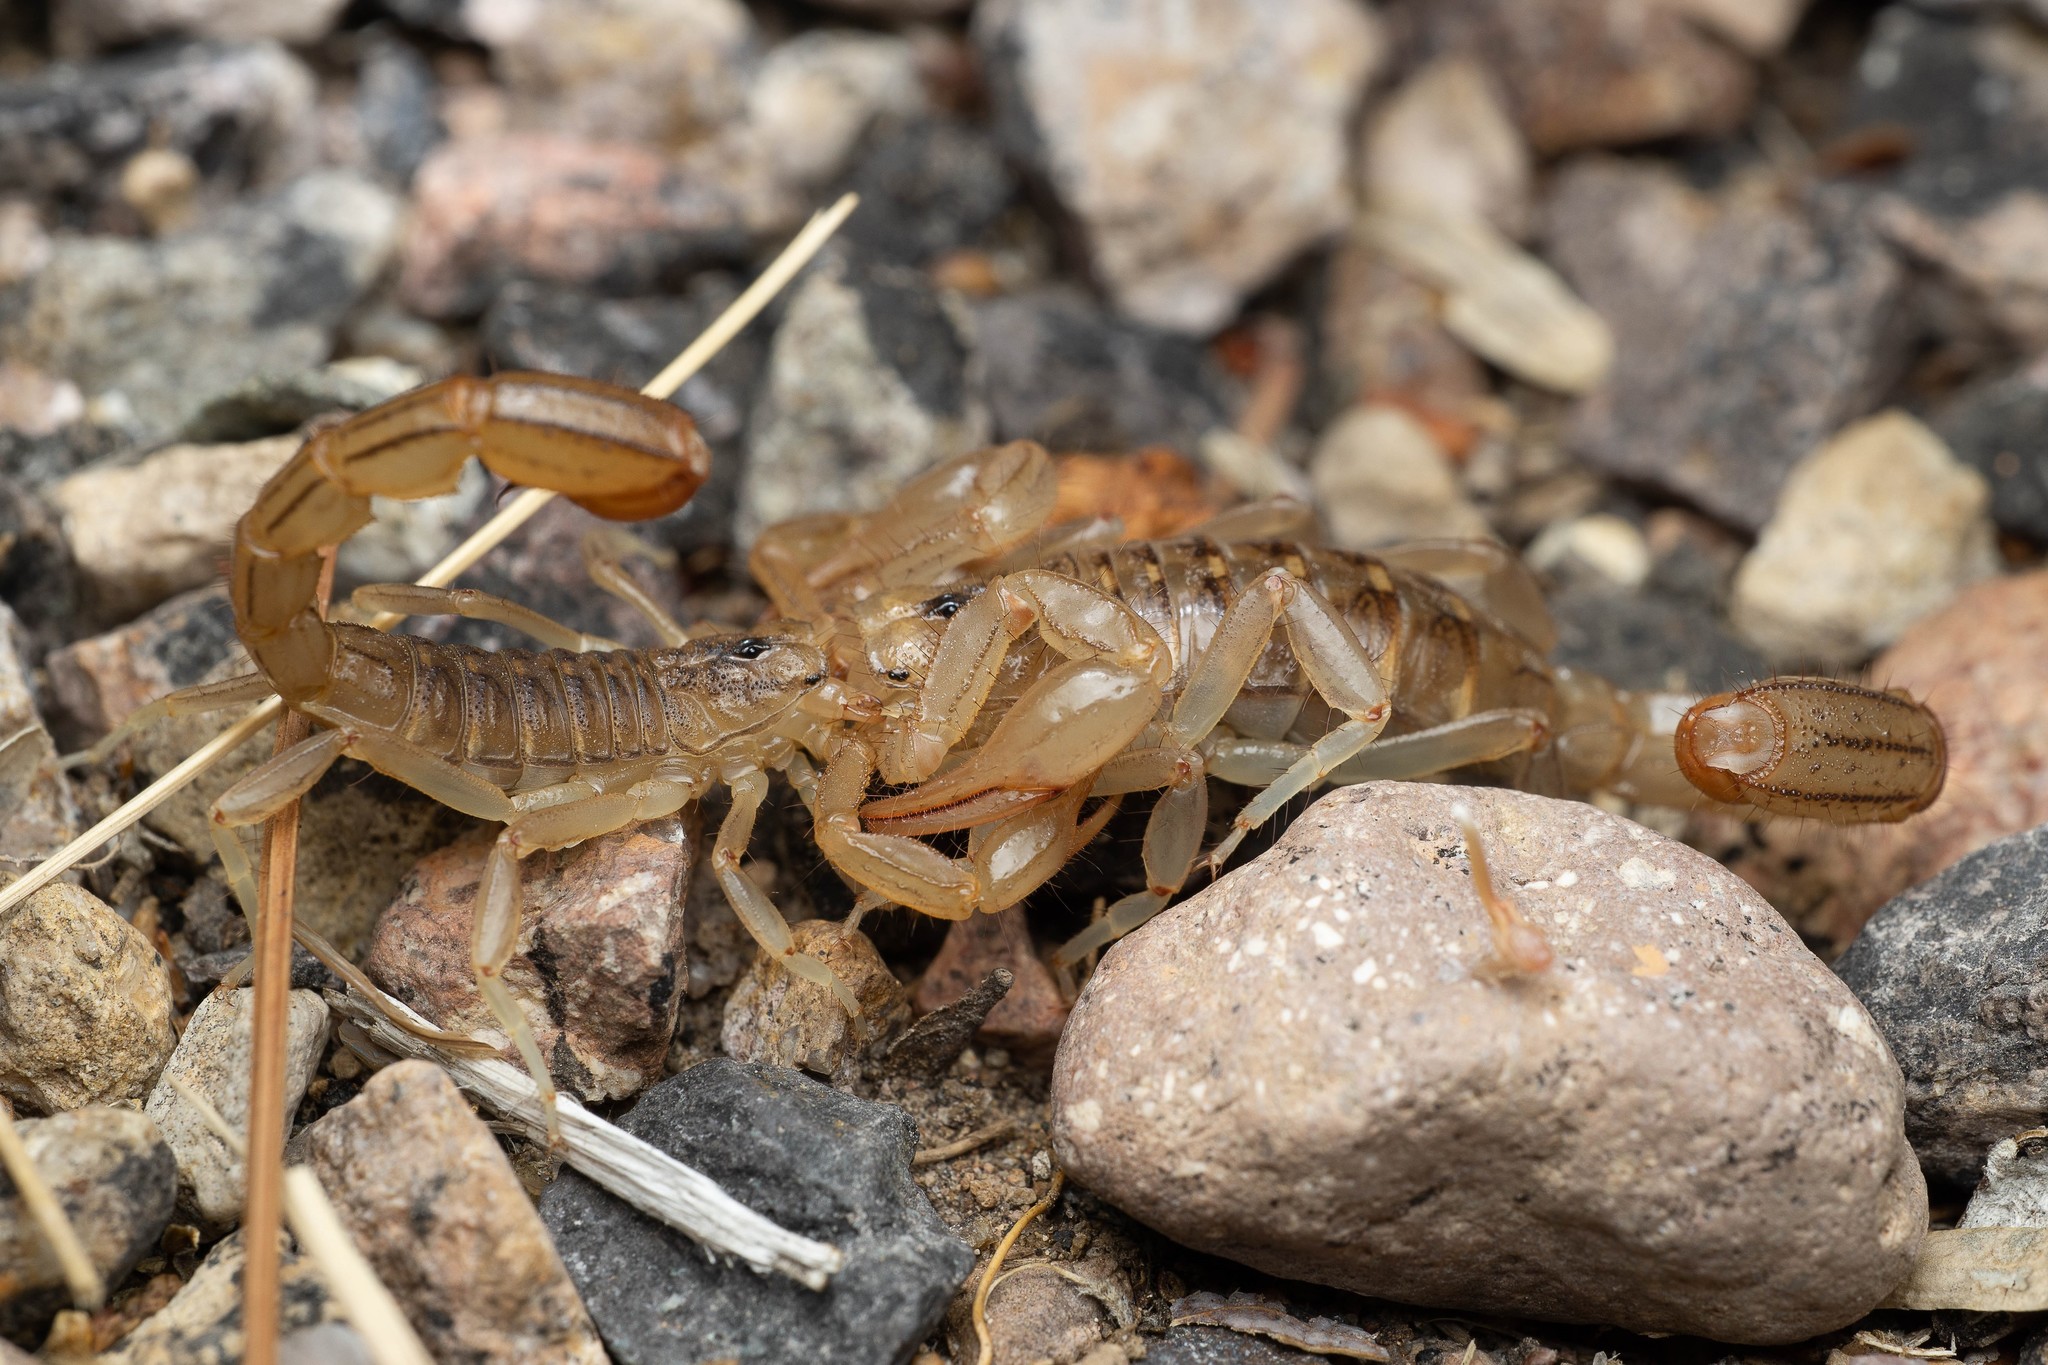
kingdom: Animalia
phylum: Arthropoda
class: Arachnida
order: Scorpiones
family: Vaejovidae
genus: Paravaejovis
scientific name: Paravaejovis spinigerus
